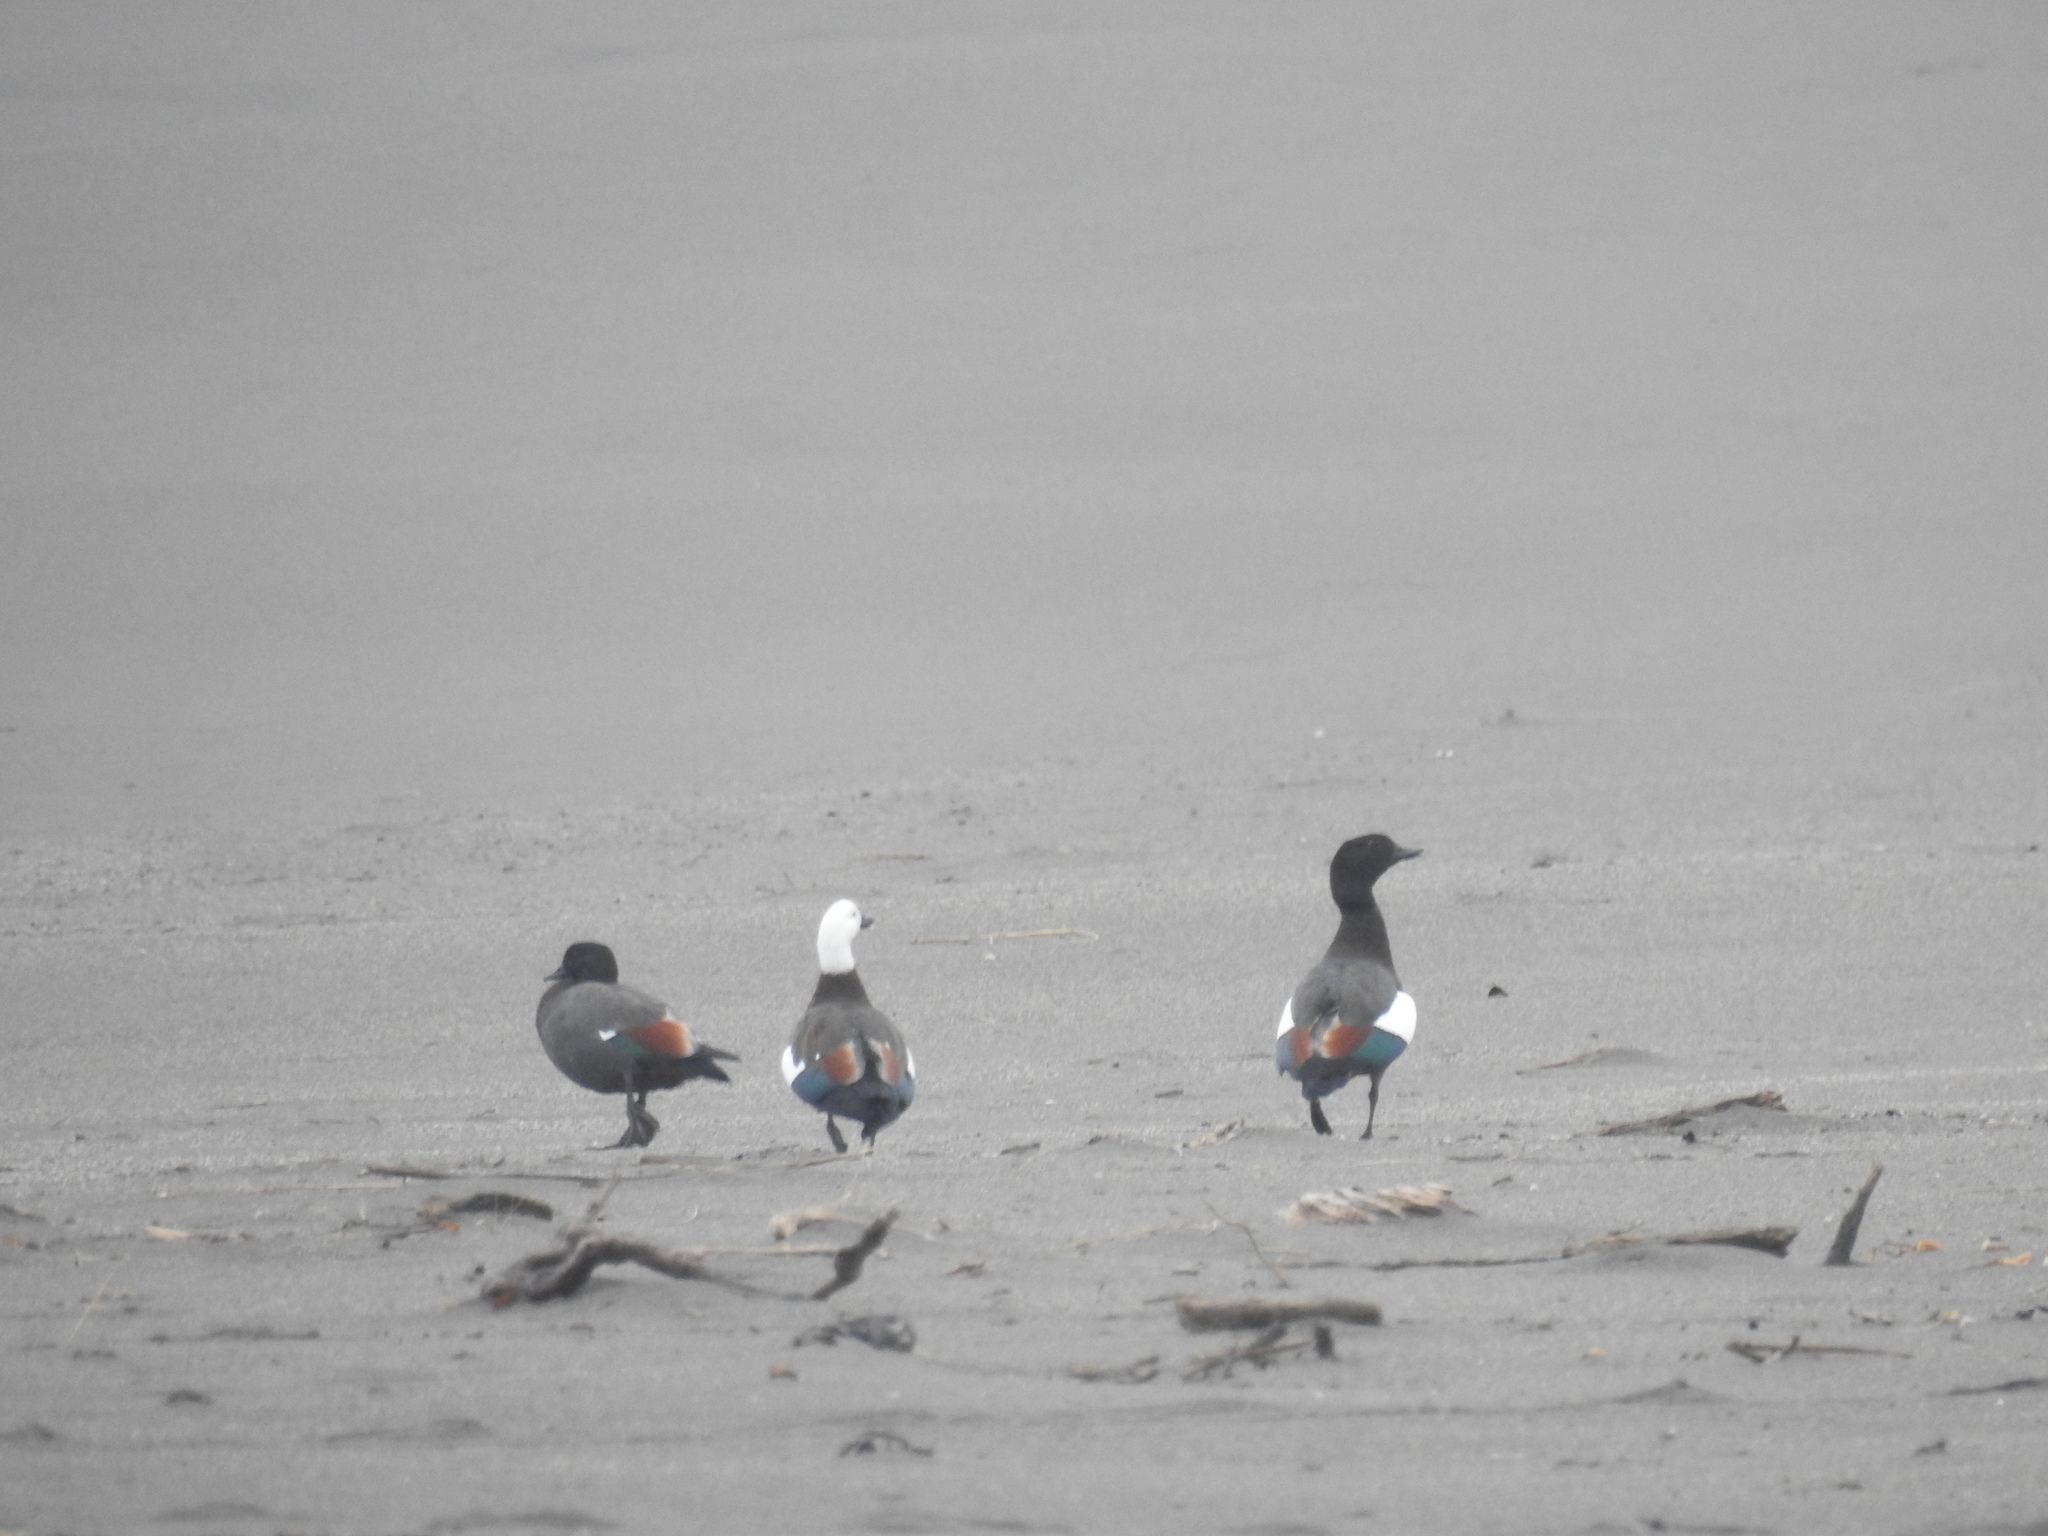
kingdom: Animalia
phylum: Chordata
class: Aves
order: Anseriformes
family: Anatidae
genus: Tadorna
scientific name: Tadorna variegata
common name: Paradise shelduck
